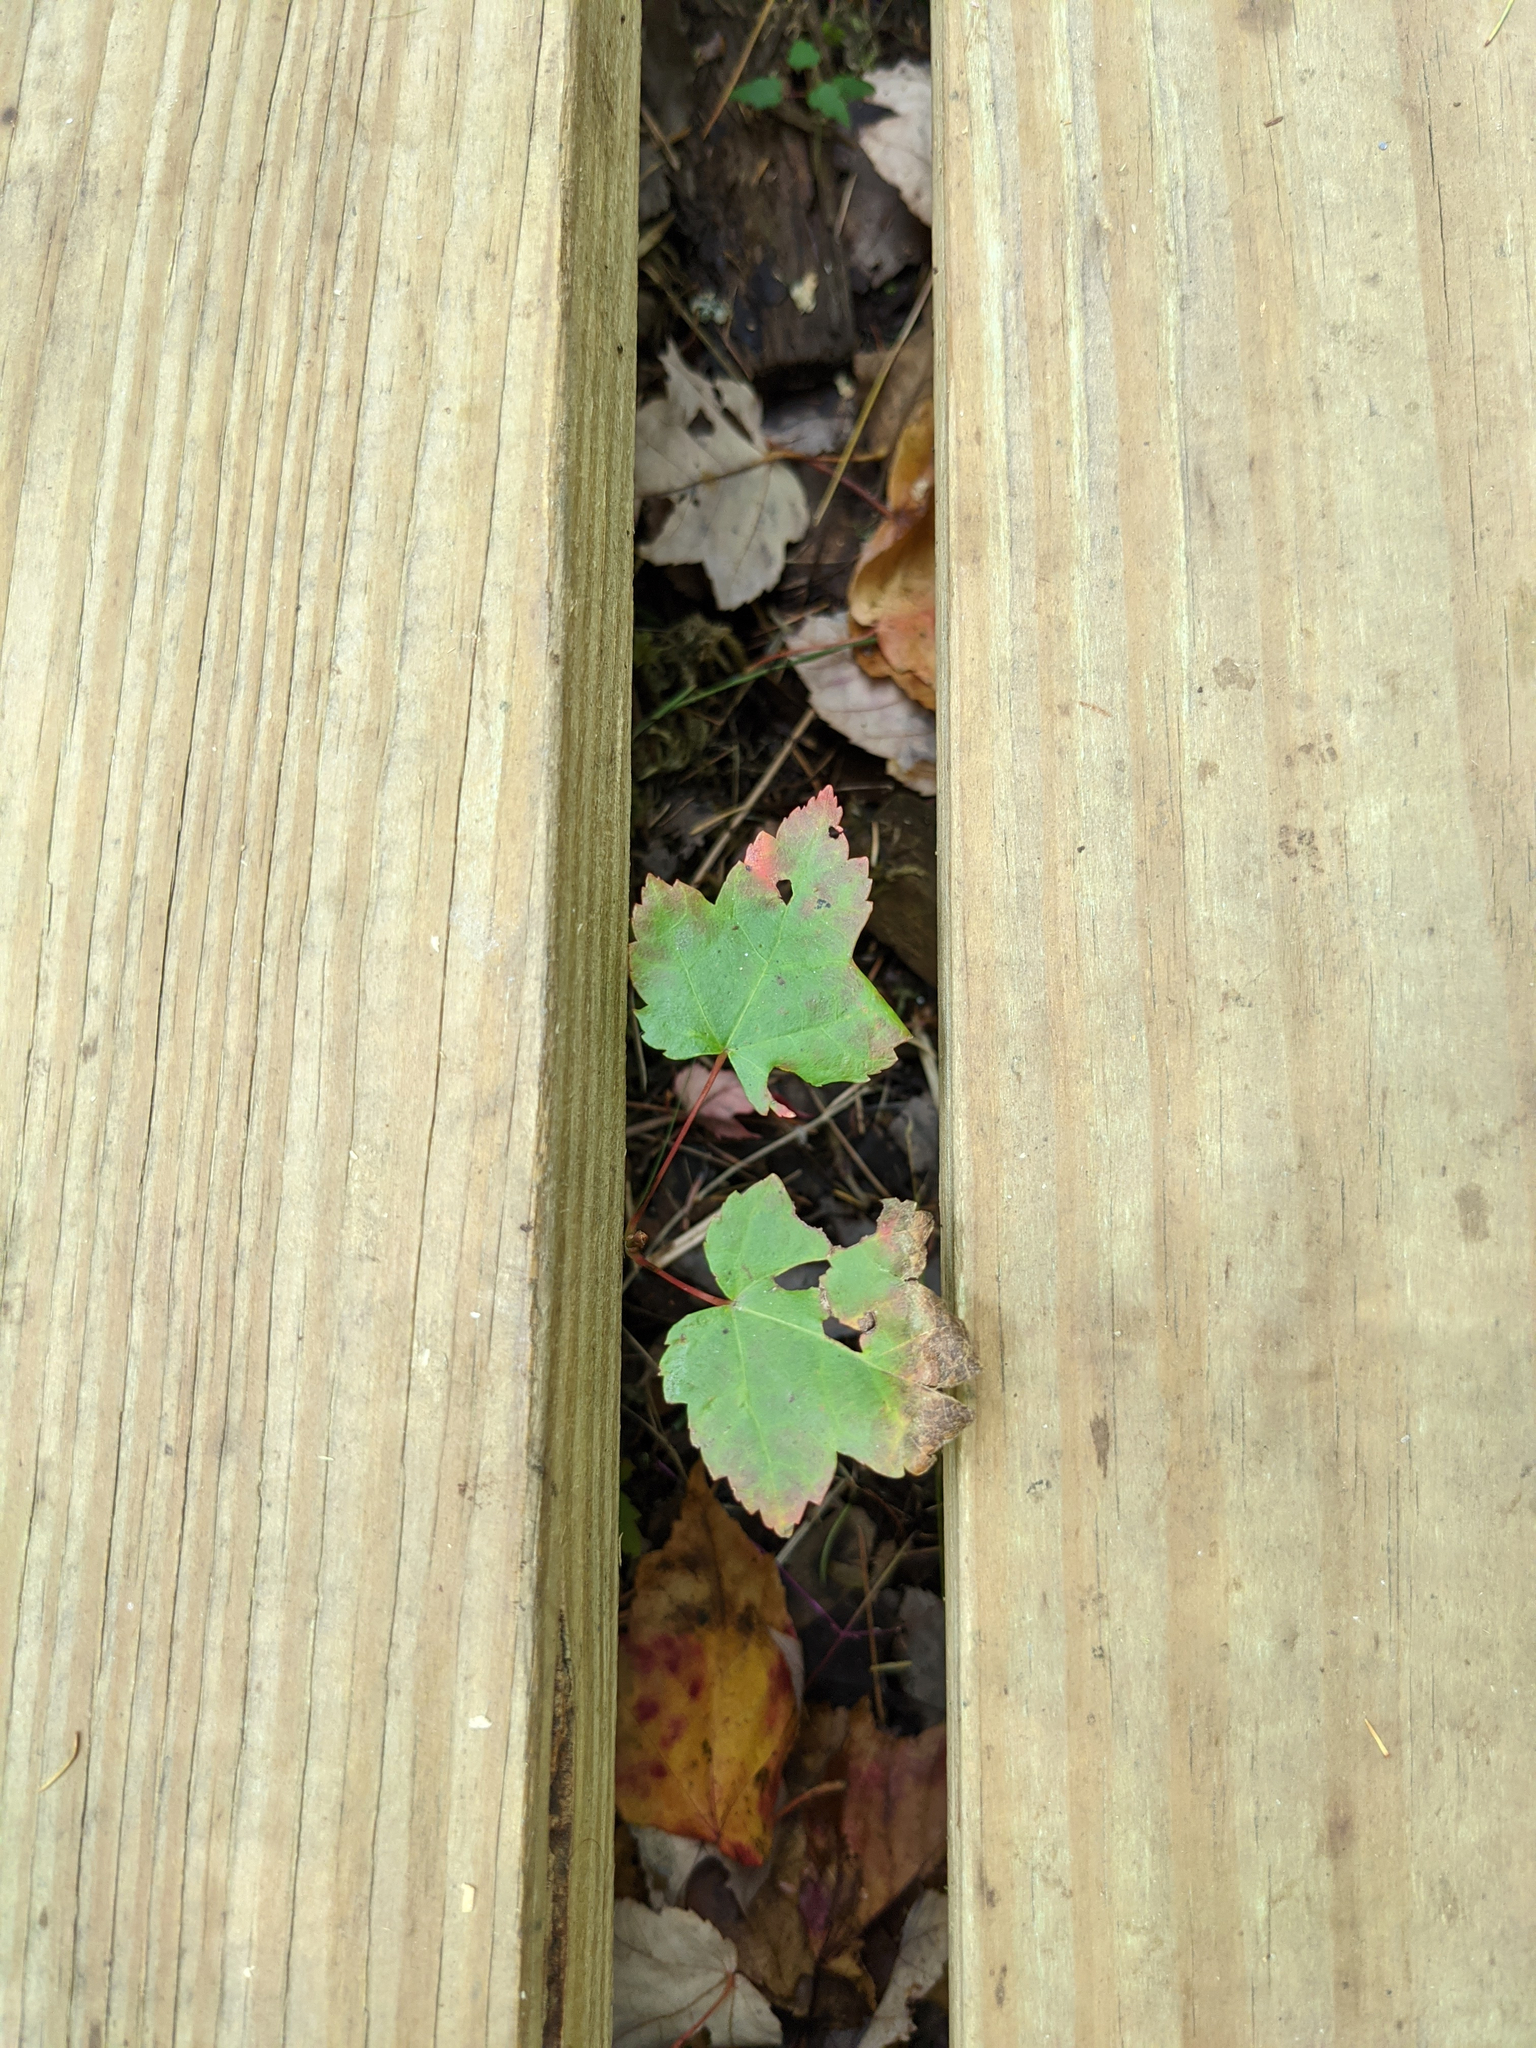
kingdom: Plantae
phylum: Tracheophyta
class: Magnoliopsida
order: Sapindales
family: Sapindaceae
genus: Acer
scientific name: Acer rubrum
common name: Red maple
